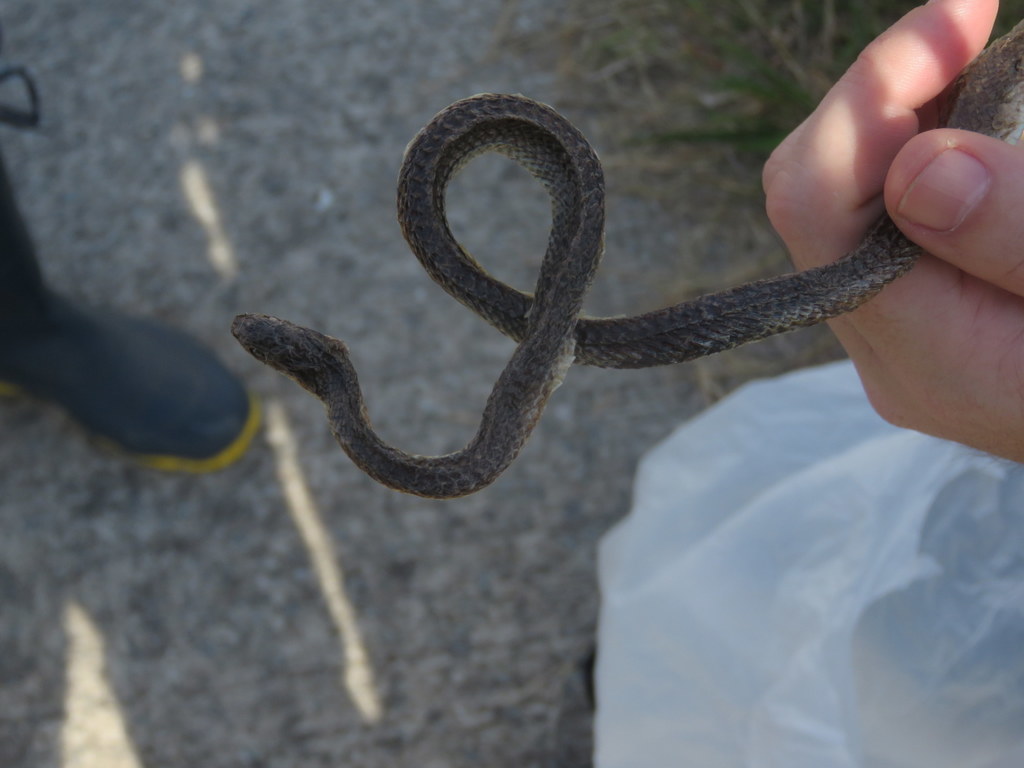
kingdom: Animalia
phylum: Chordata
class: Squamata
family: Colubridae
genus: Erythrolamprus
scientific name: Erythrolamprus poecilogyrus
